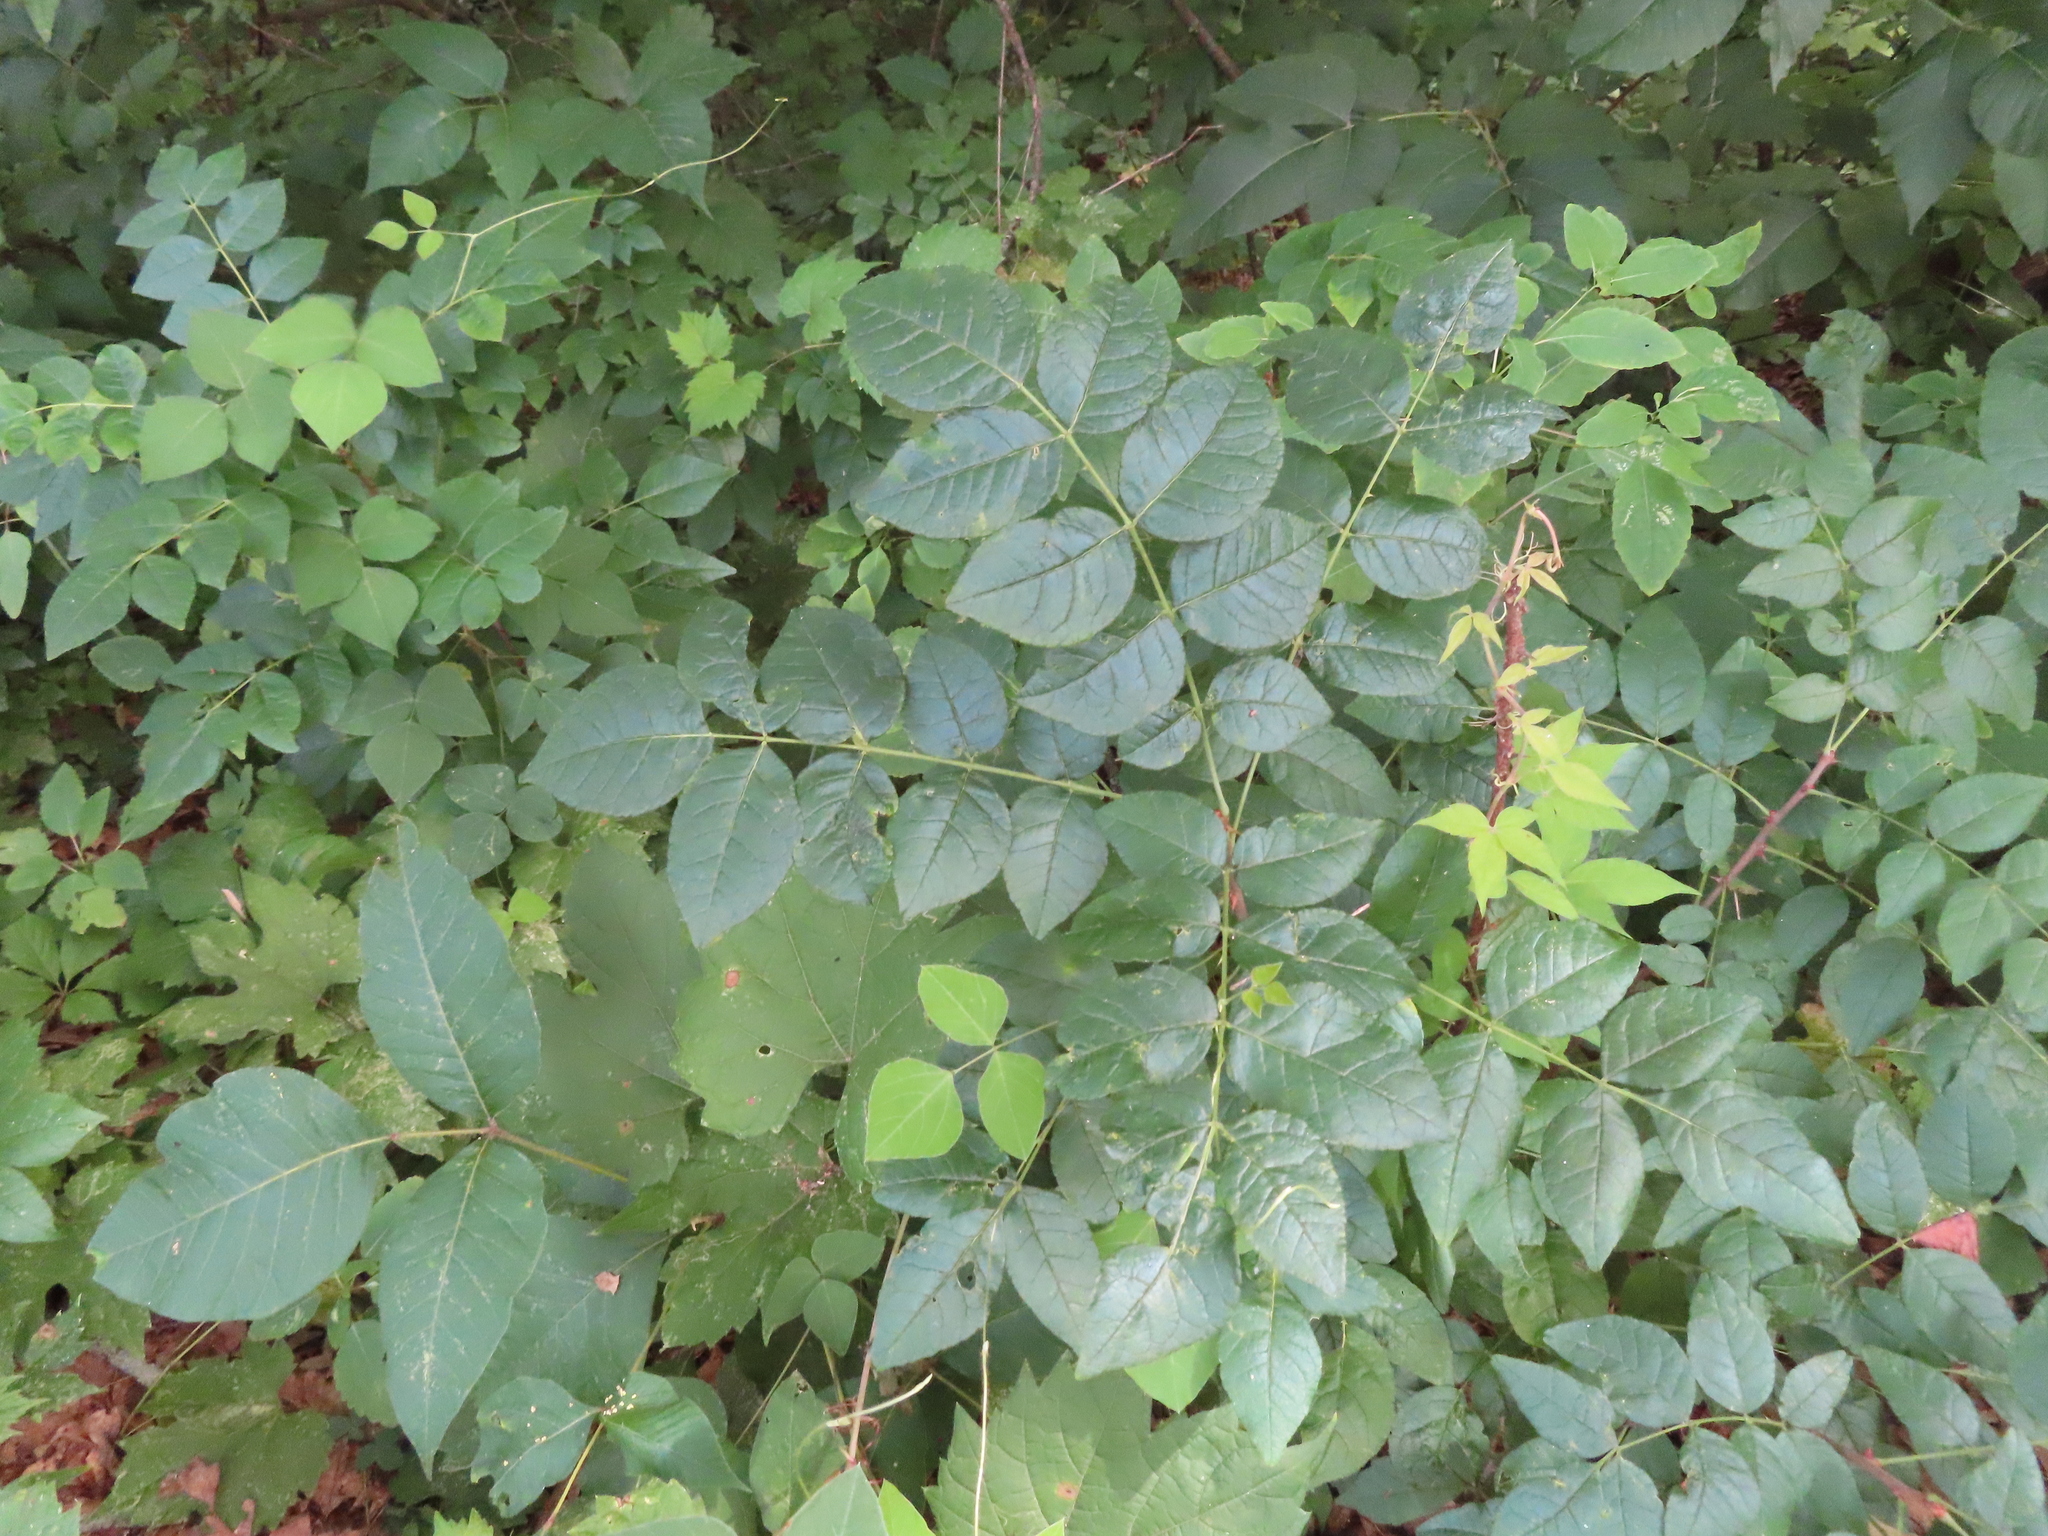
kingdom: Plantae
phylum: Tracheophyta
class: Magnoliopsida
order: Sapindales
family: Rutaceae
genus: Zanthoxylum
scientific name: Zanthoxylum americanum
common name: Northern prickly-ash
